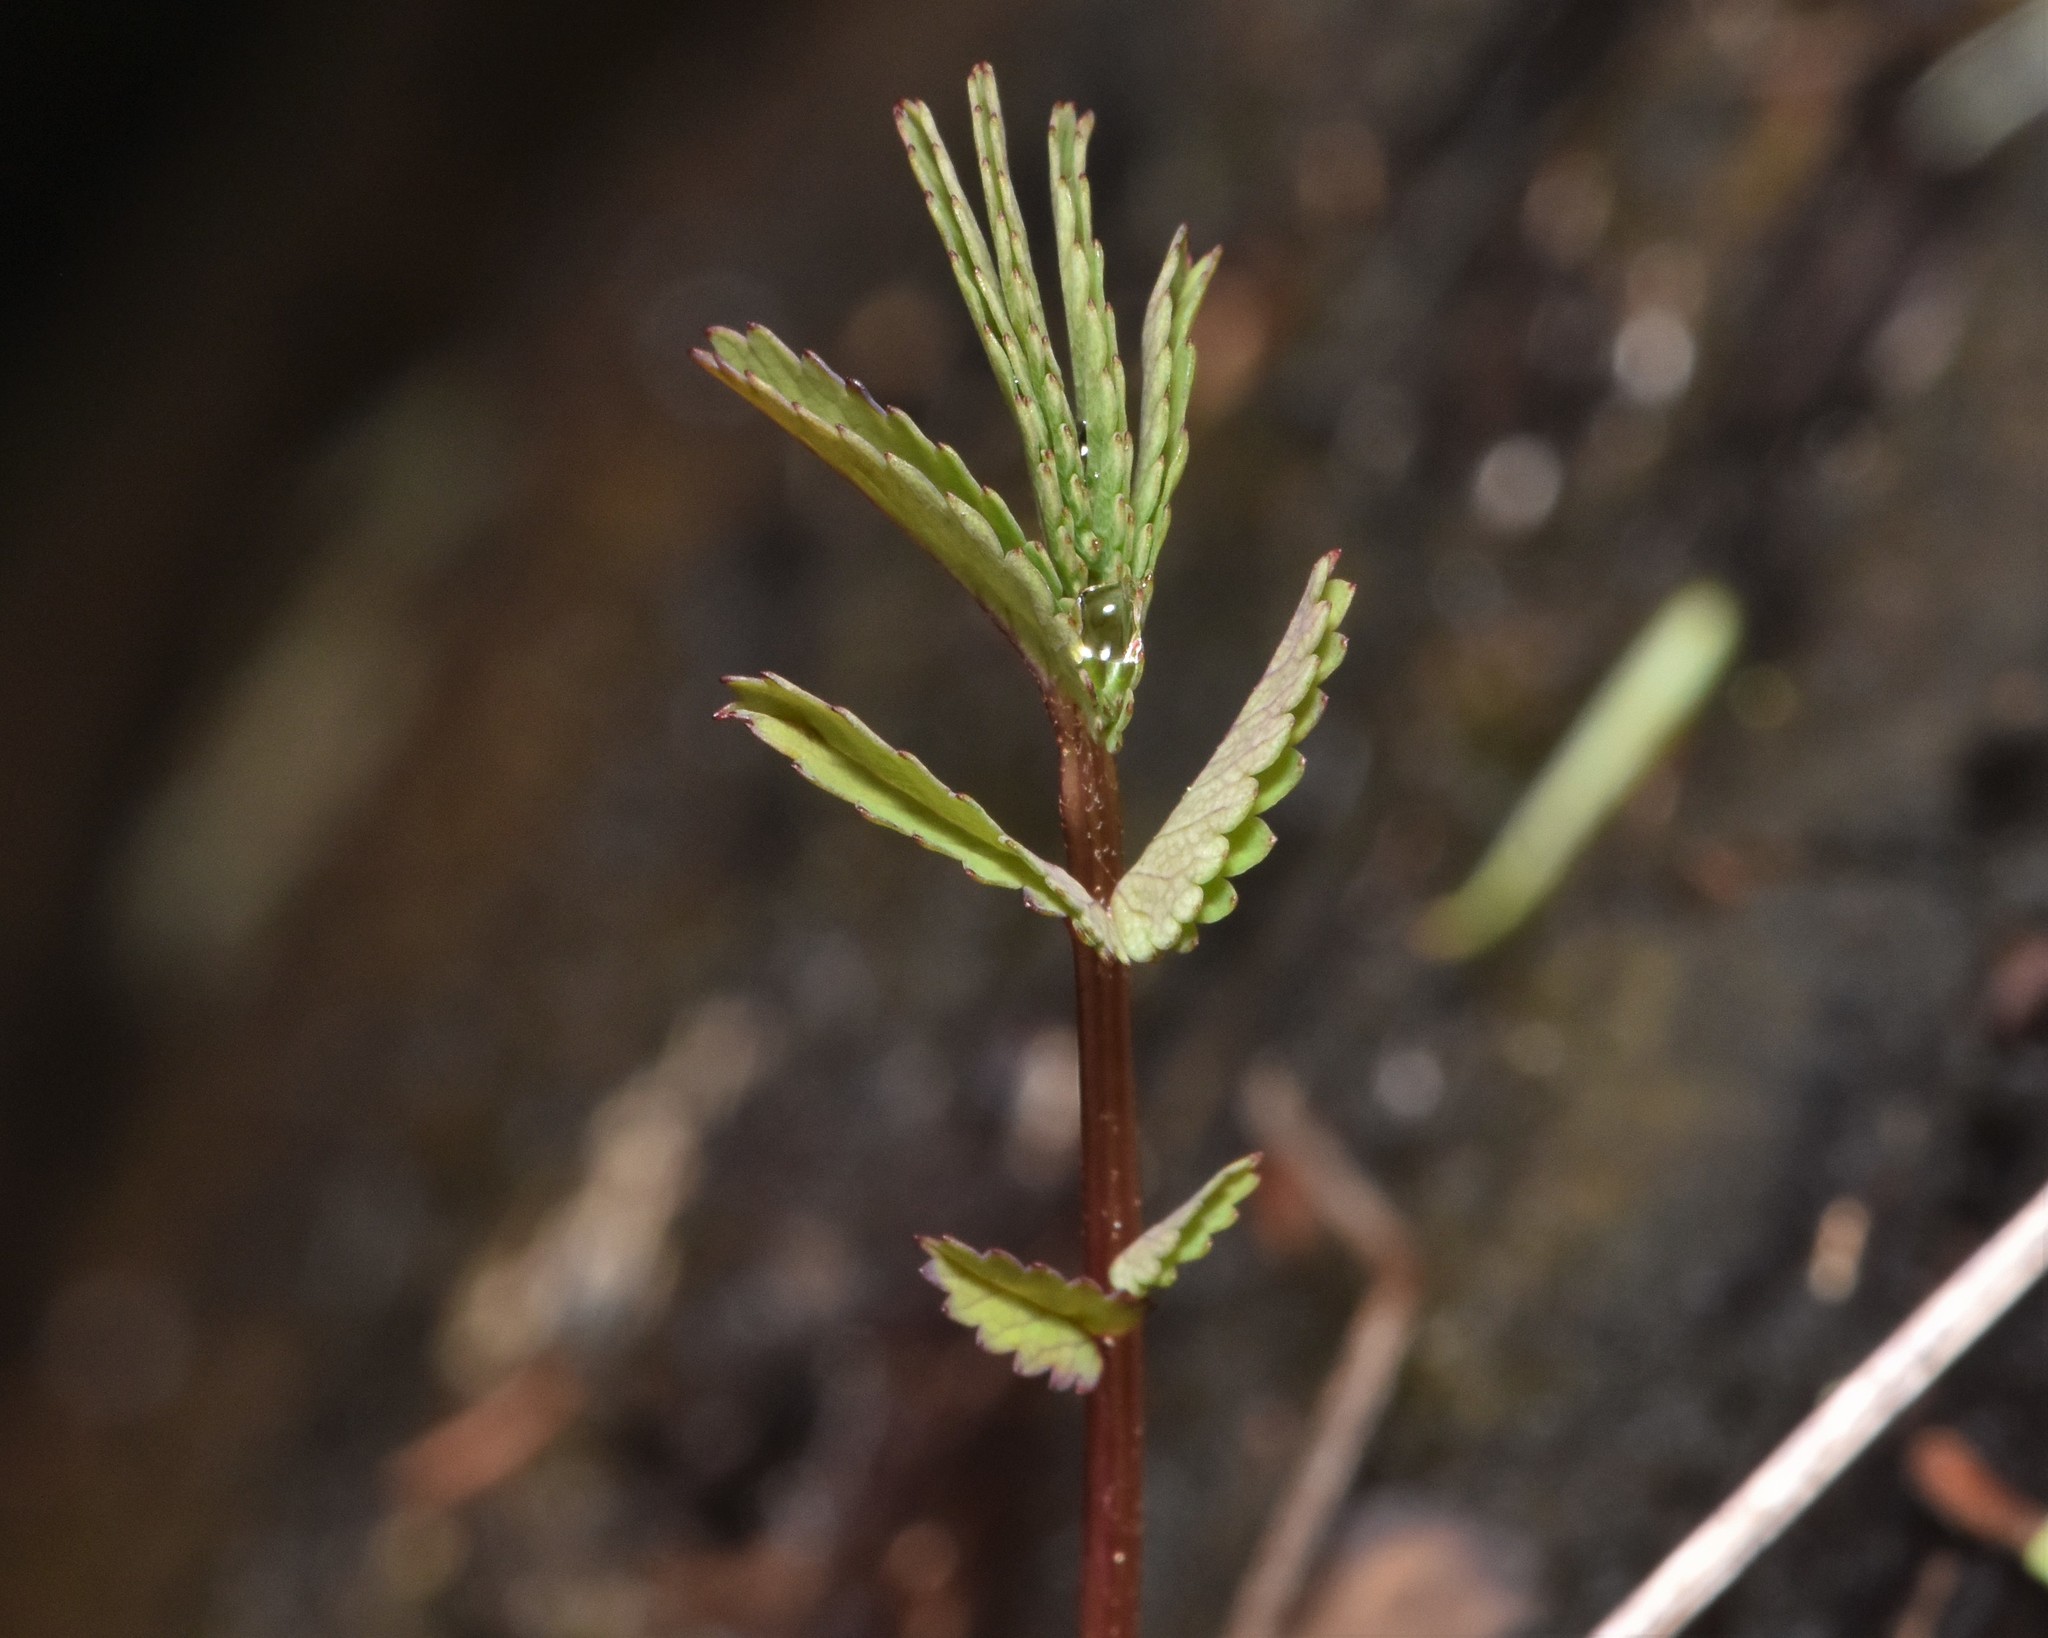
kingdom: Plantae
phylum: Tracheophyta
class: Magnoliopsida
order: Rosales
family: Rosaceae
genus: Comarum
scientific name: Comarum palustre
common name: Marsh cinquefoil
